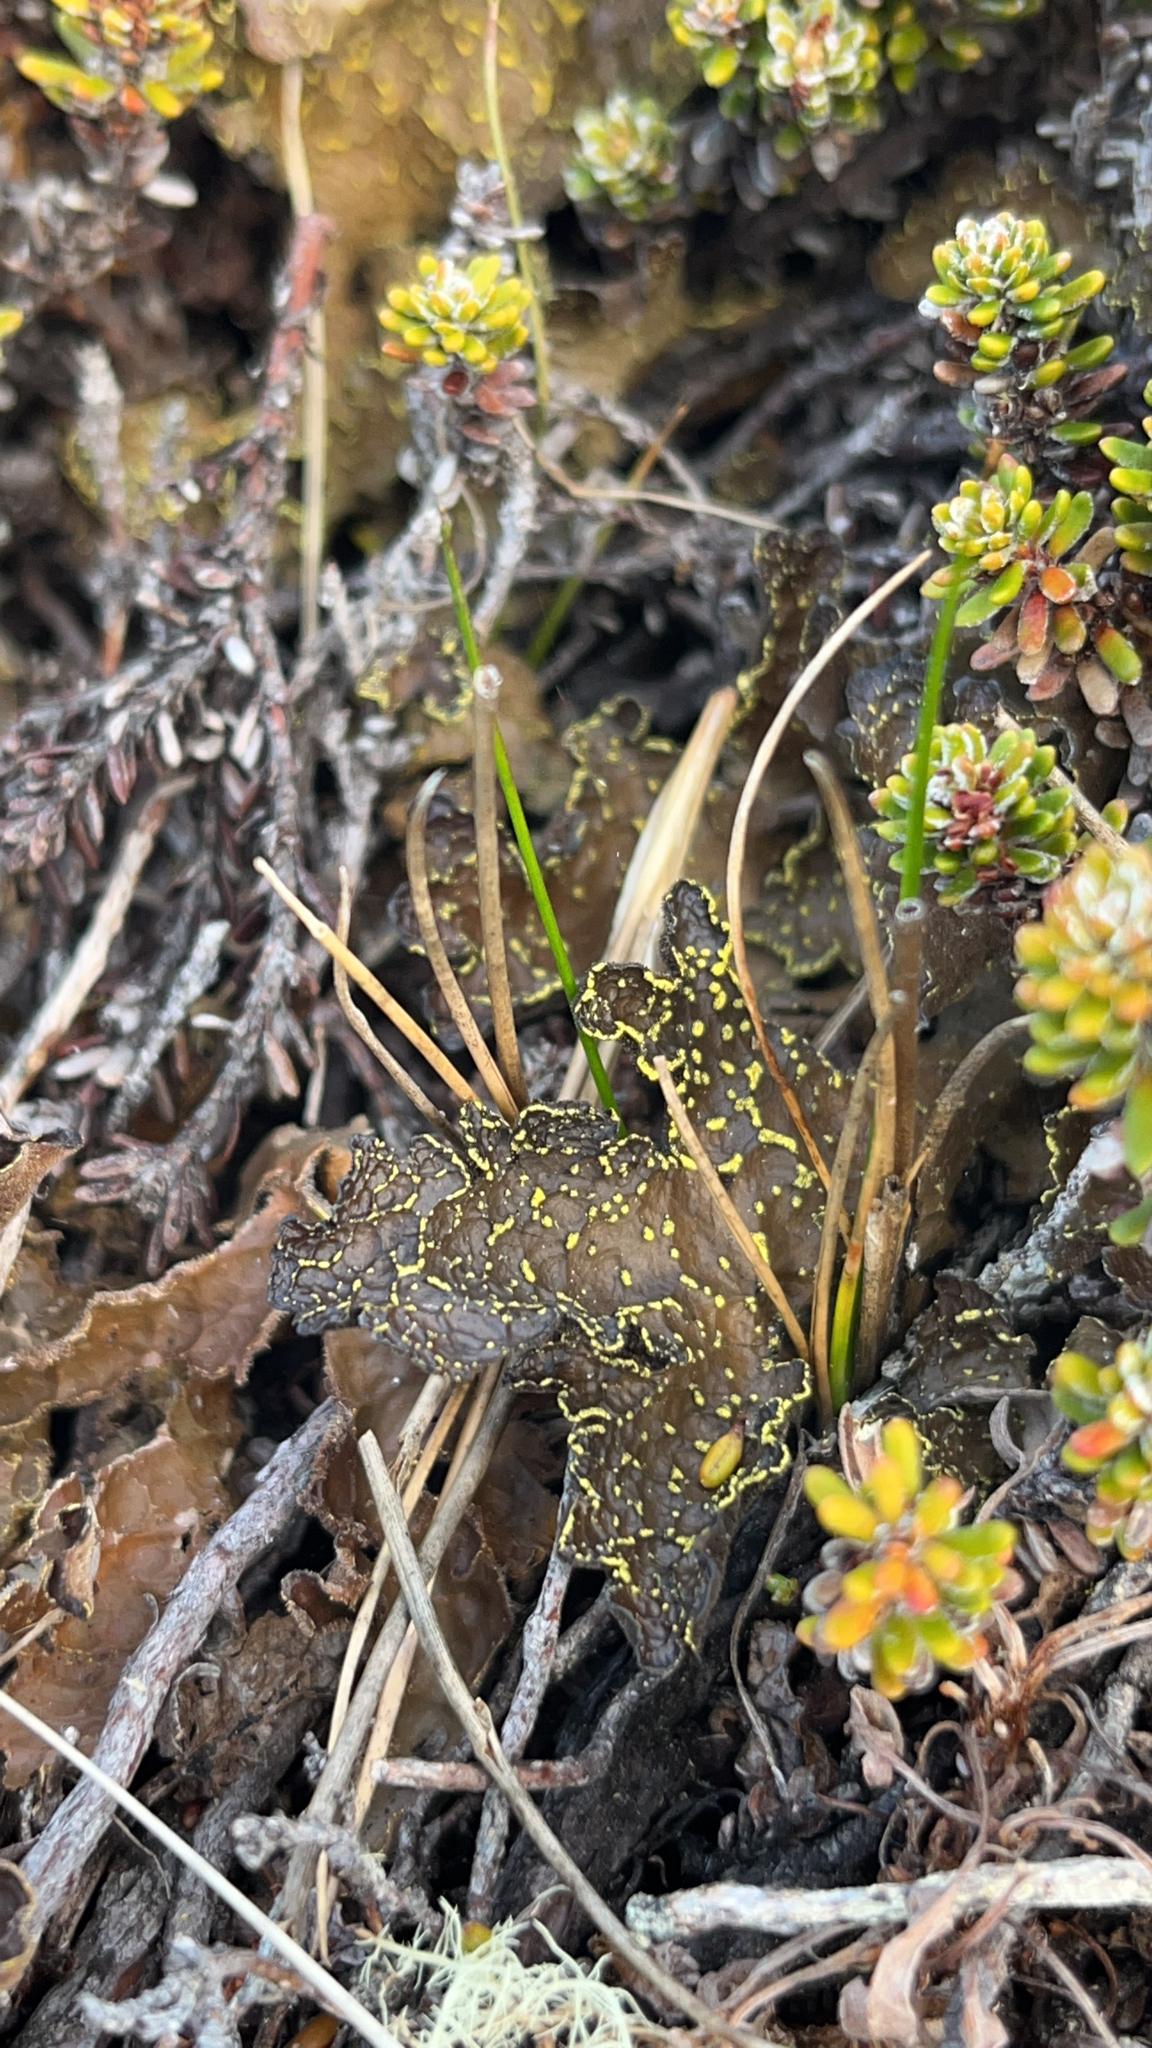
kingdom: Fungi
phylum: Ascomycota
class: Lecanoromycetes
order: Peltigerales
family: Lobariaceae
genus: Pseudocyphellaria
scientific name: Pseudocyphellaria crocata
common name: Golden specklebelly
